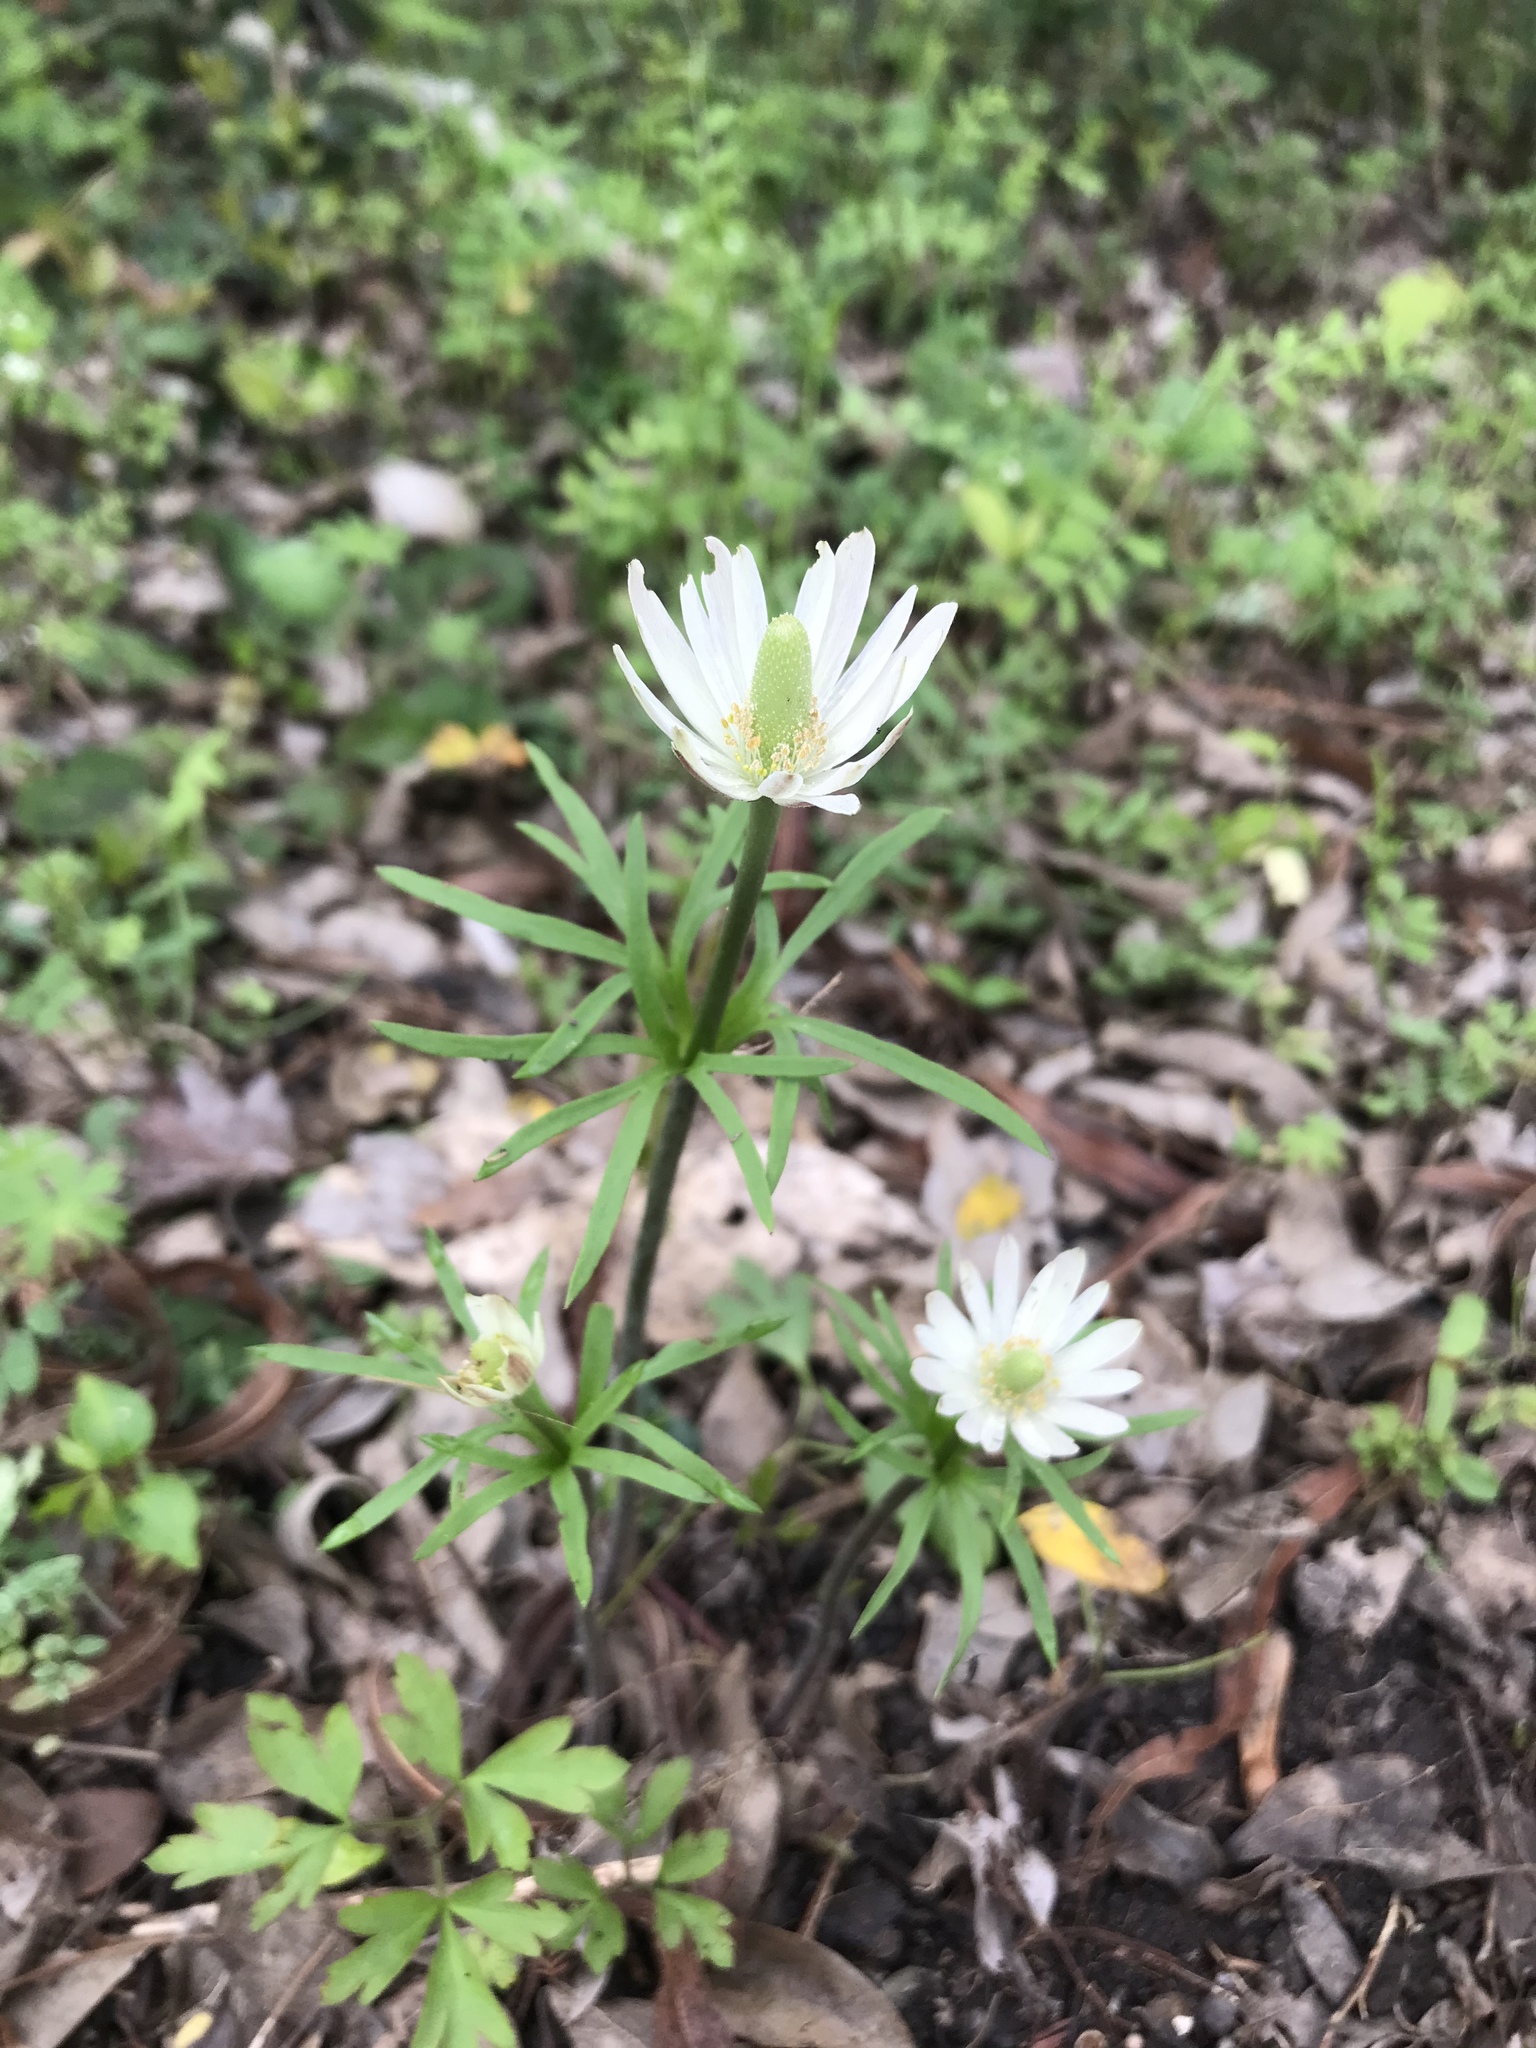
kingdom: Plantae
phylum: Tracheophyta
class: Magnoliopsida
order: Ranunculales
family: Ranunculaceae
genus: Anemone
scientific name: Anemone berlandieri
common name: Ten-petal anemone
